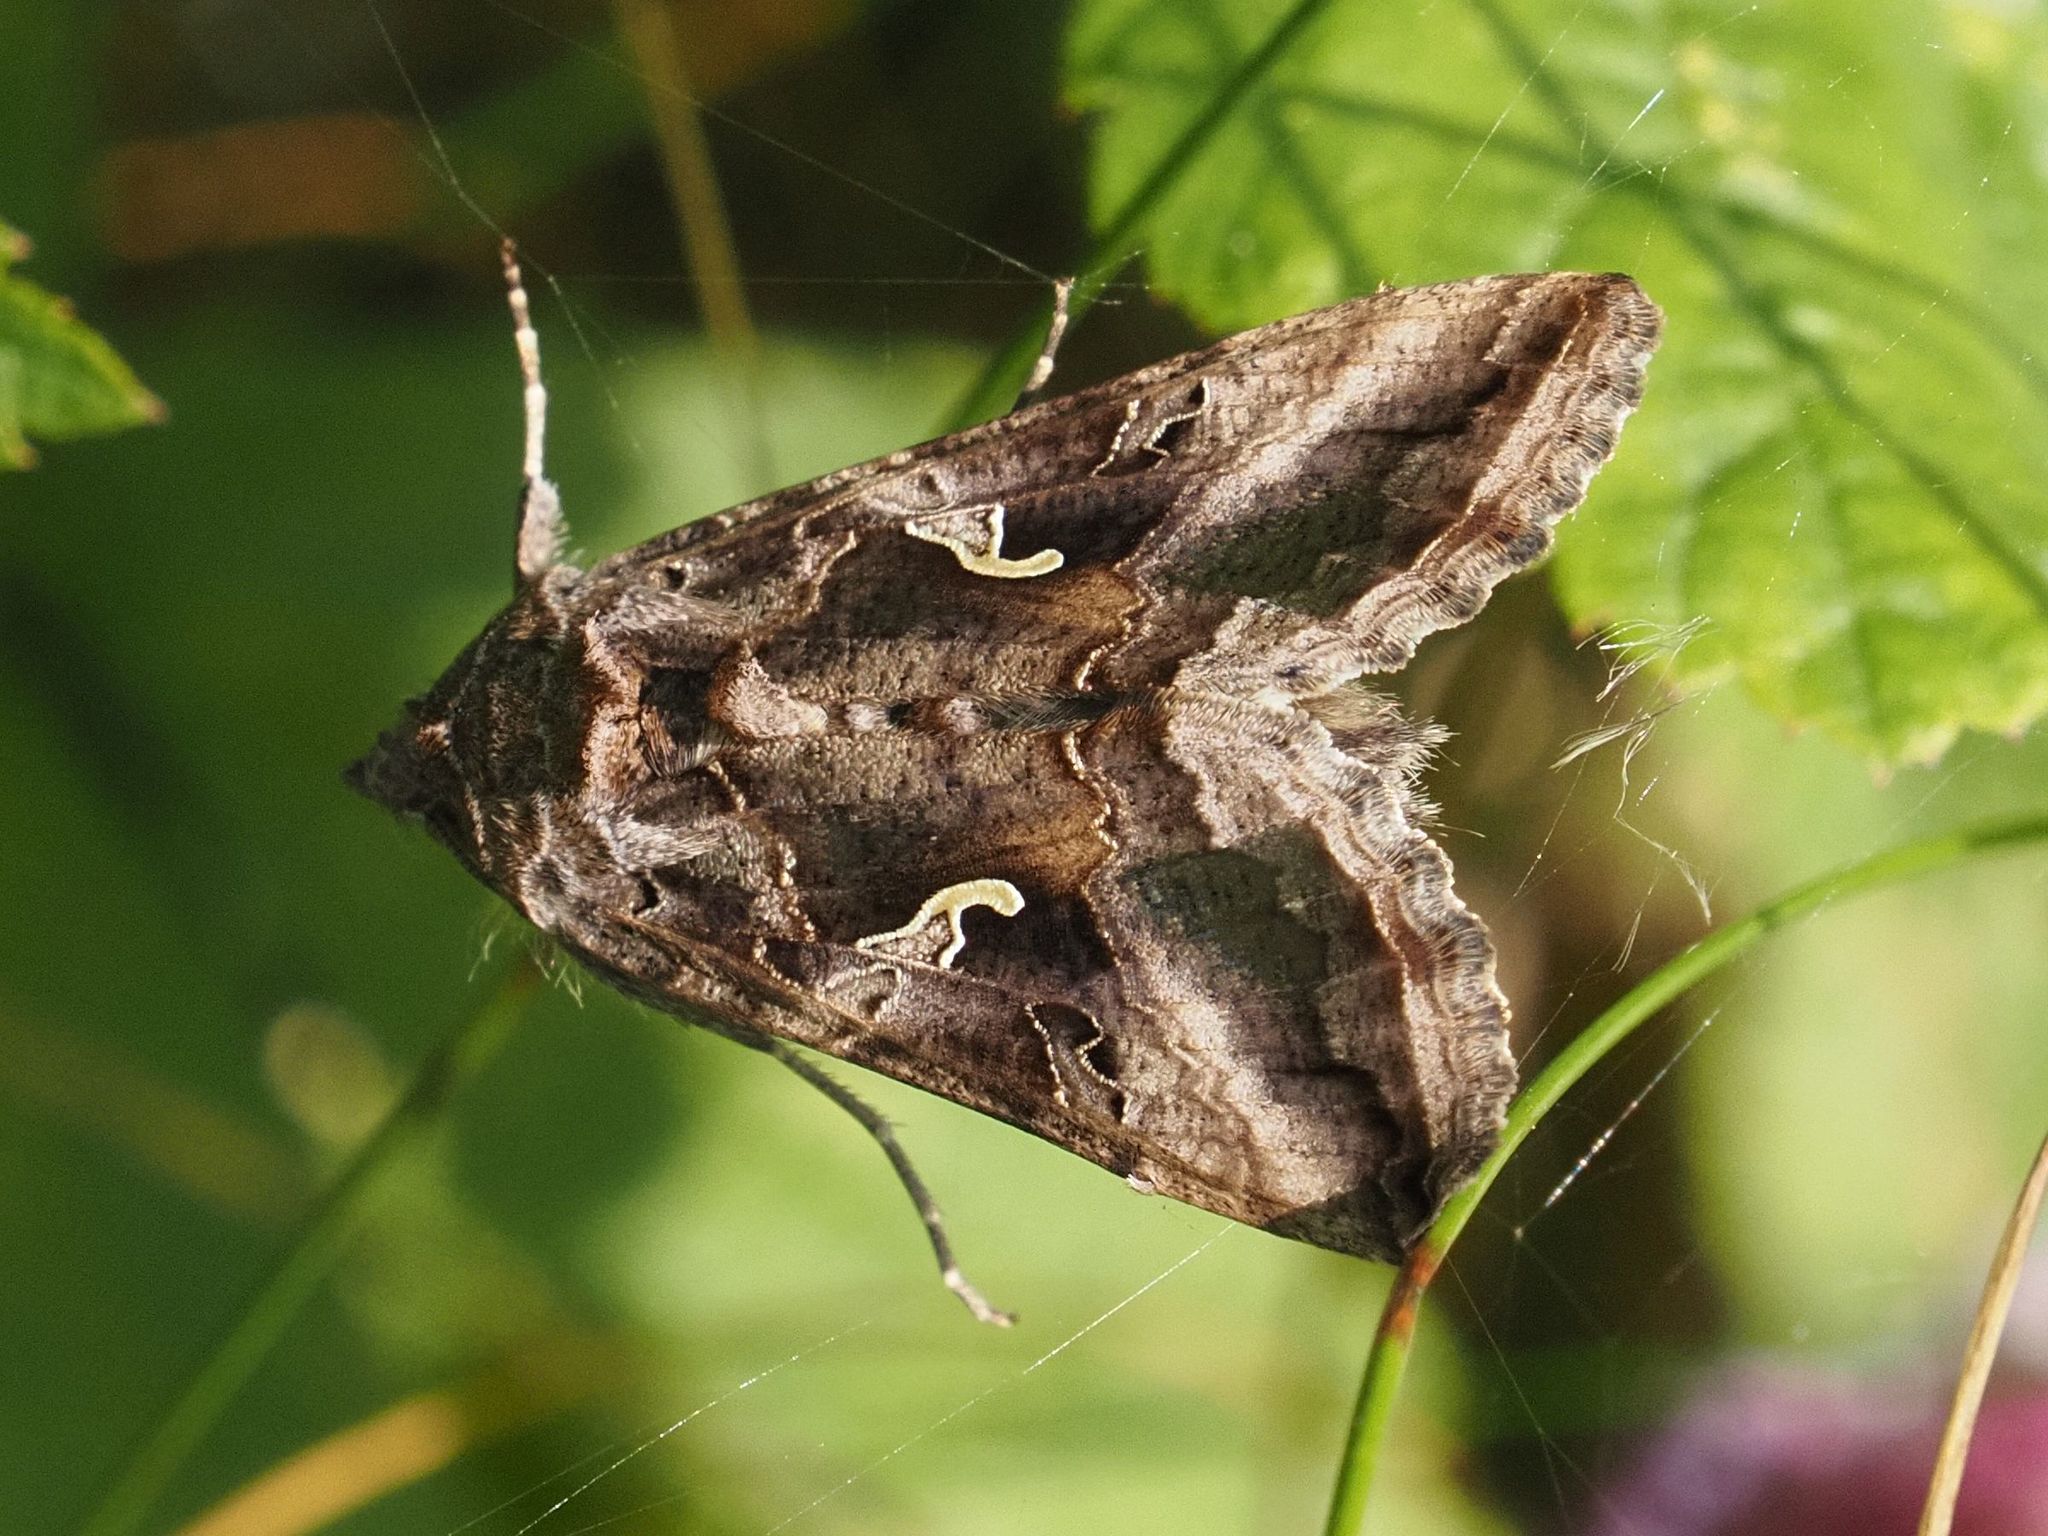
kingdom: Animalia
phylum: Arthropoda
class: Insecta
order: Lepidoptera
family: Noctuidae
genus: Autographa
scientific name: Autographa gamma
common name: Silver y
